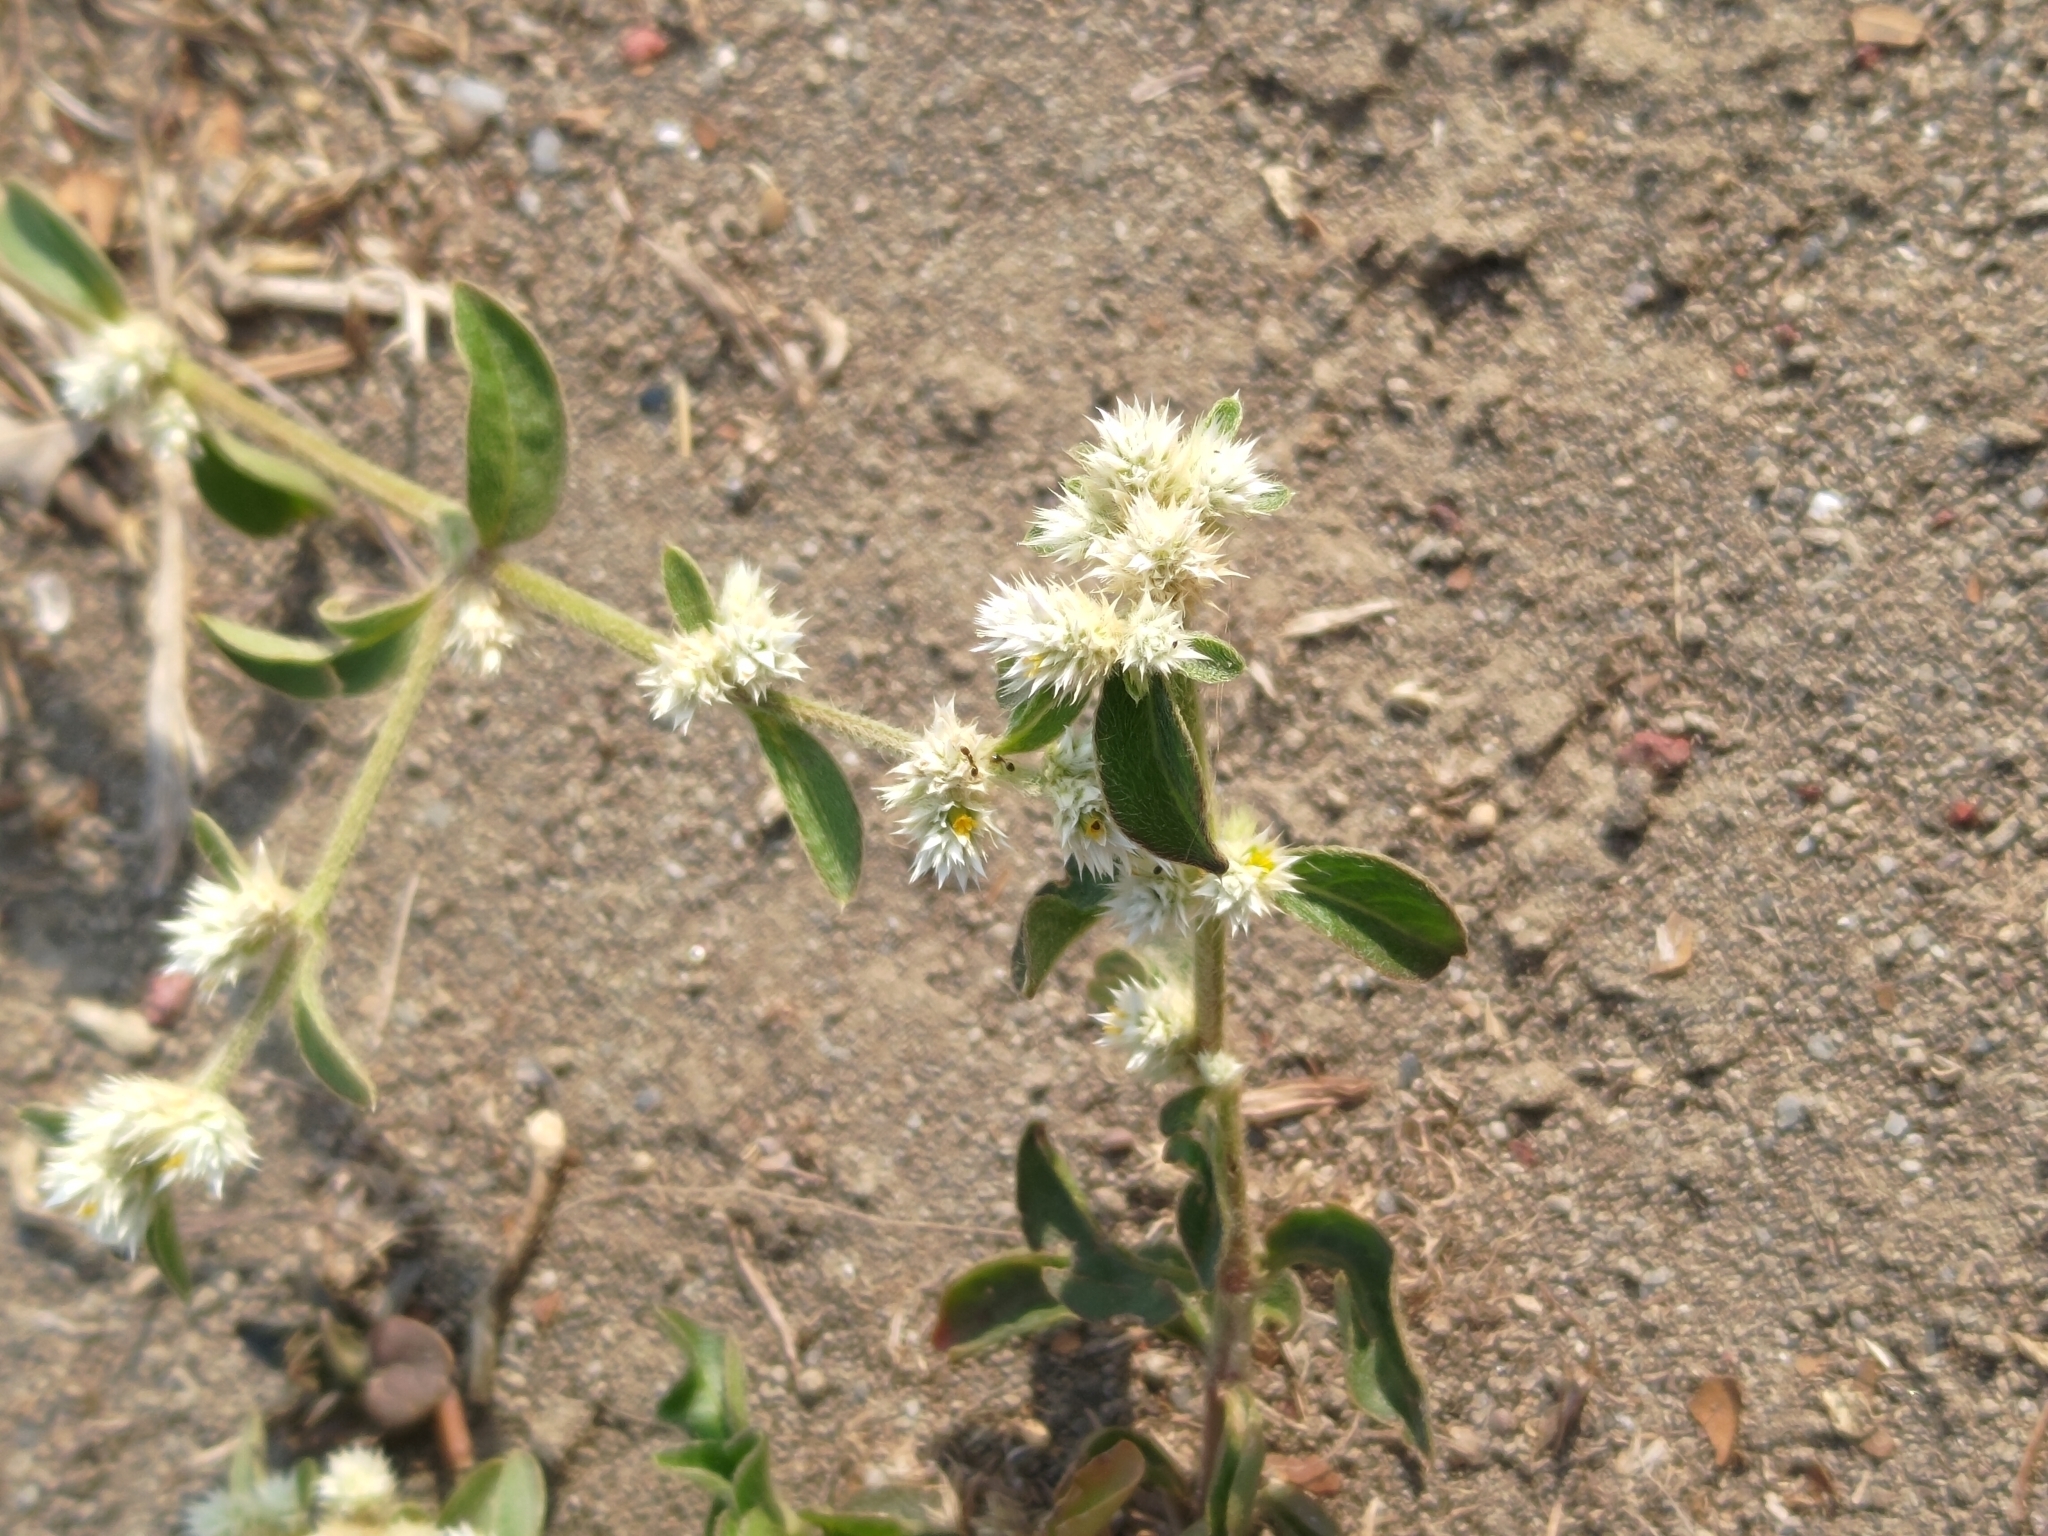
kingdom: Plantae
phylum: Tracheophyta
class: Magnoliopsida
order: Caryophyllales
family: Amaranthaceae
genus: Alternanthera
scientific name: Alternanthera ficoidea
